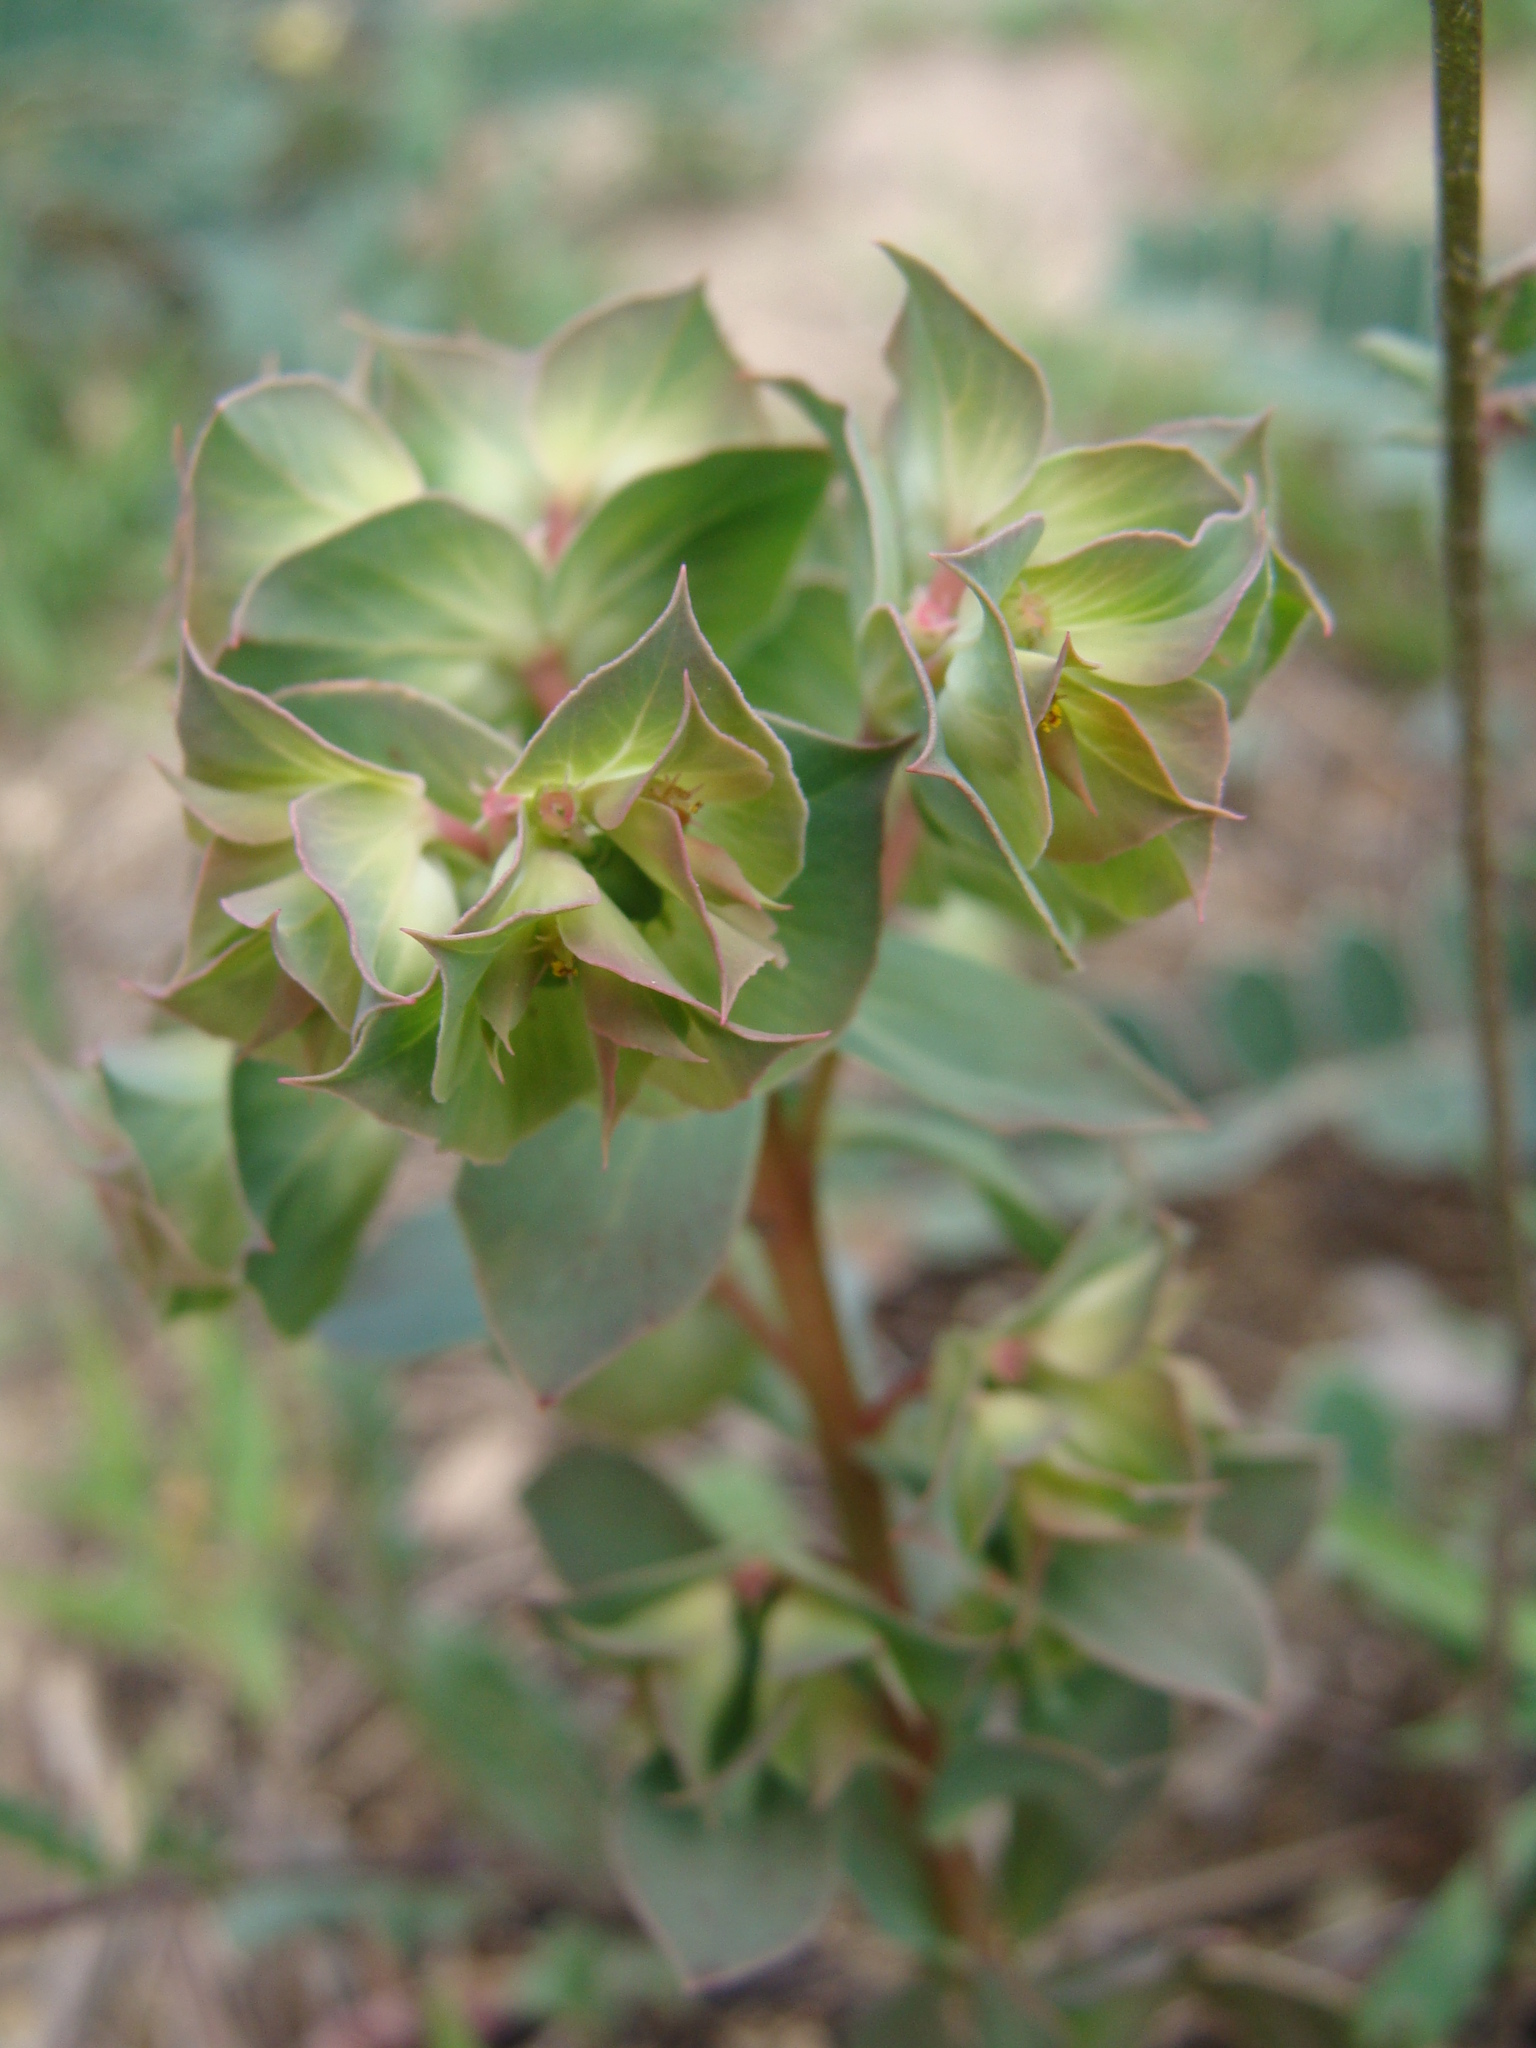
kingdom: Plantae
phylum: Tracheophyta
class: Magnoliopsida
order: Malpighiales
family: Euphorbiaceae
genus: Euphorbia
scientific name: Euphorbia falcata
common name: Sickle spurge
